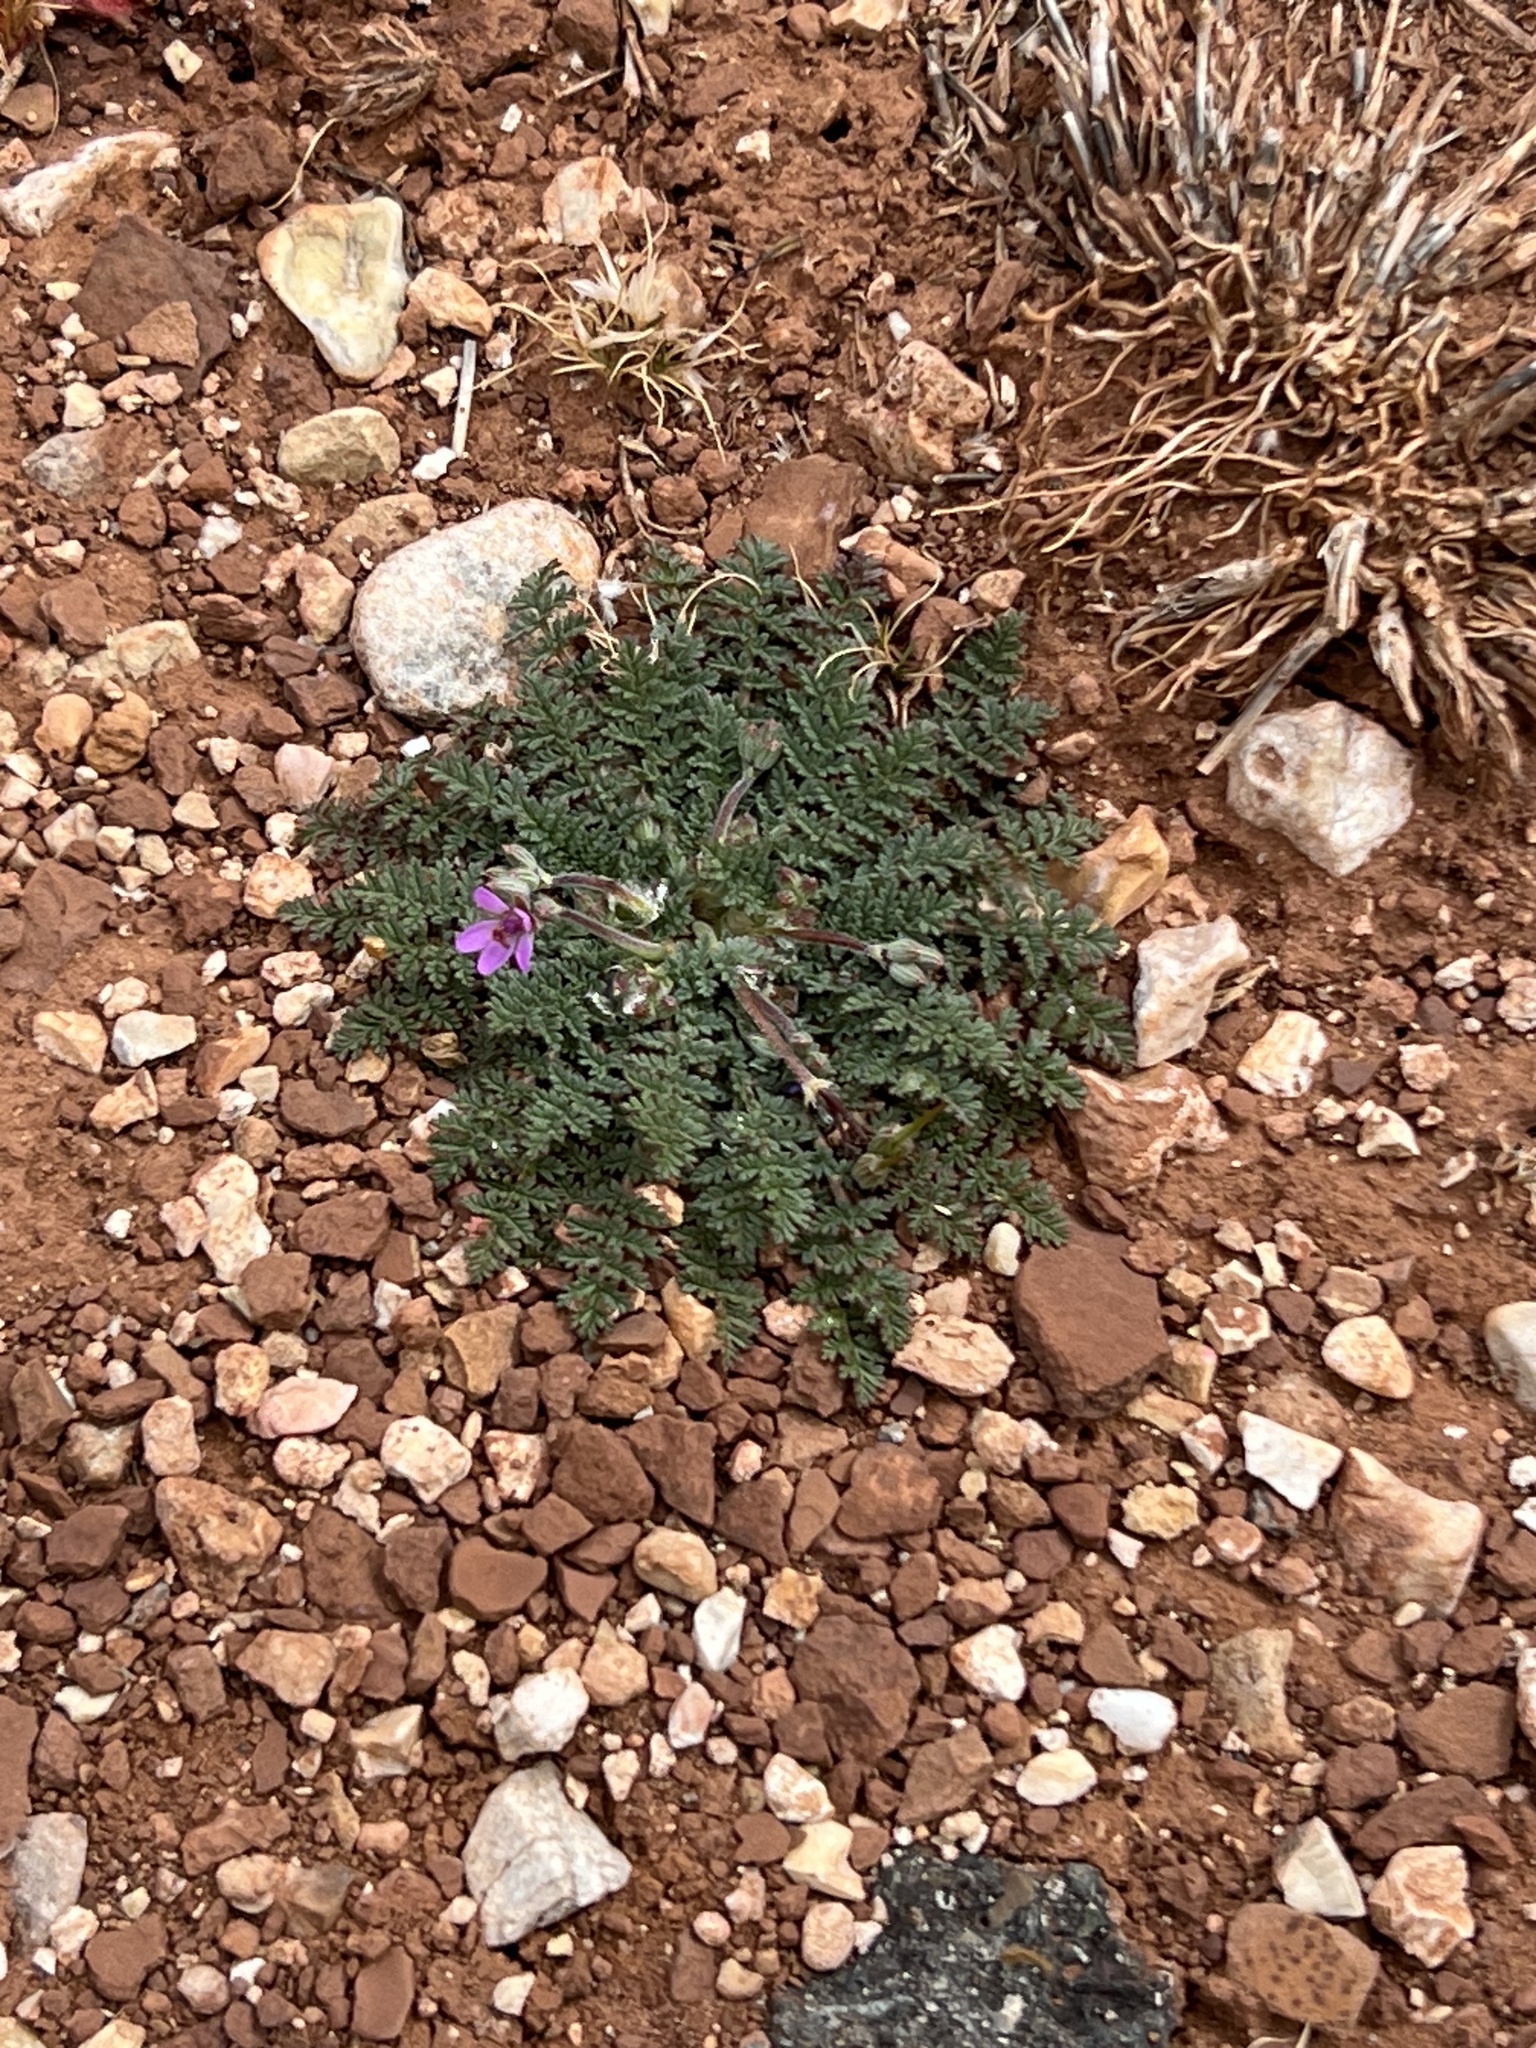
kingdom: Plantae
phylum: Tracheophyta
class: Magnoliopsida
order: Geraniales
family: Geraniaceae
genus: Erodium
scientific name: Erodium cicutarium
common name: Common stork's-bill
